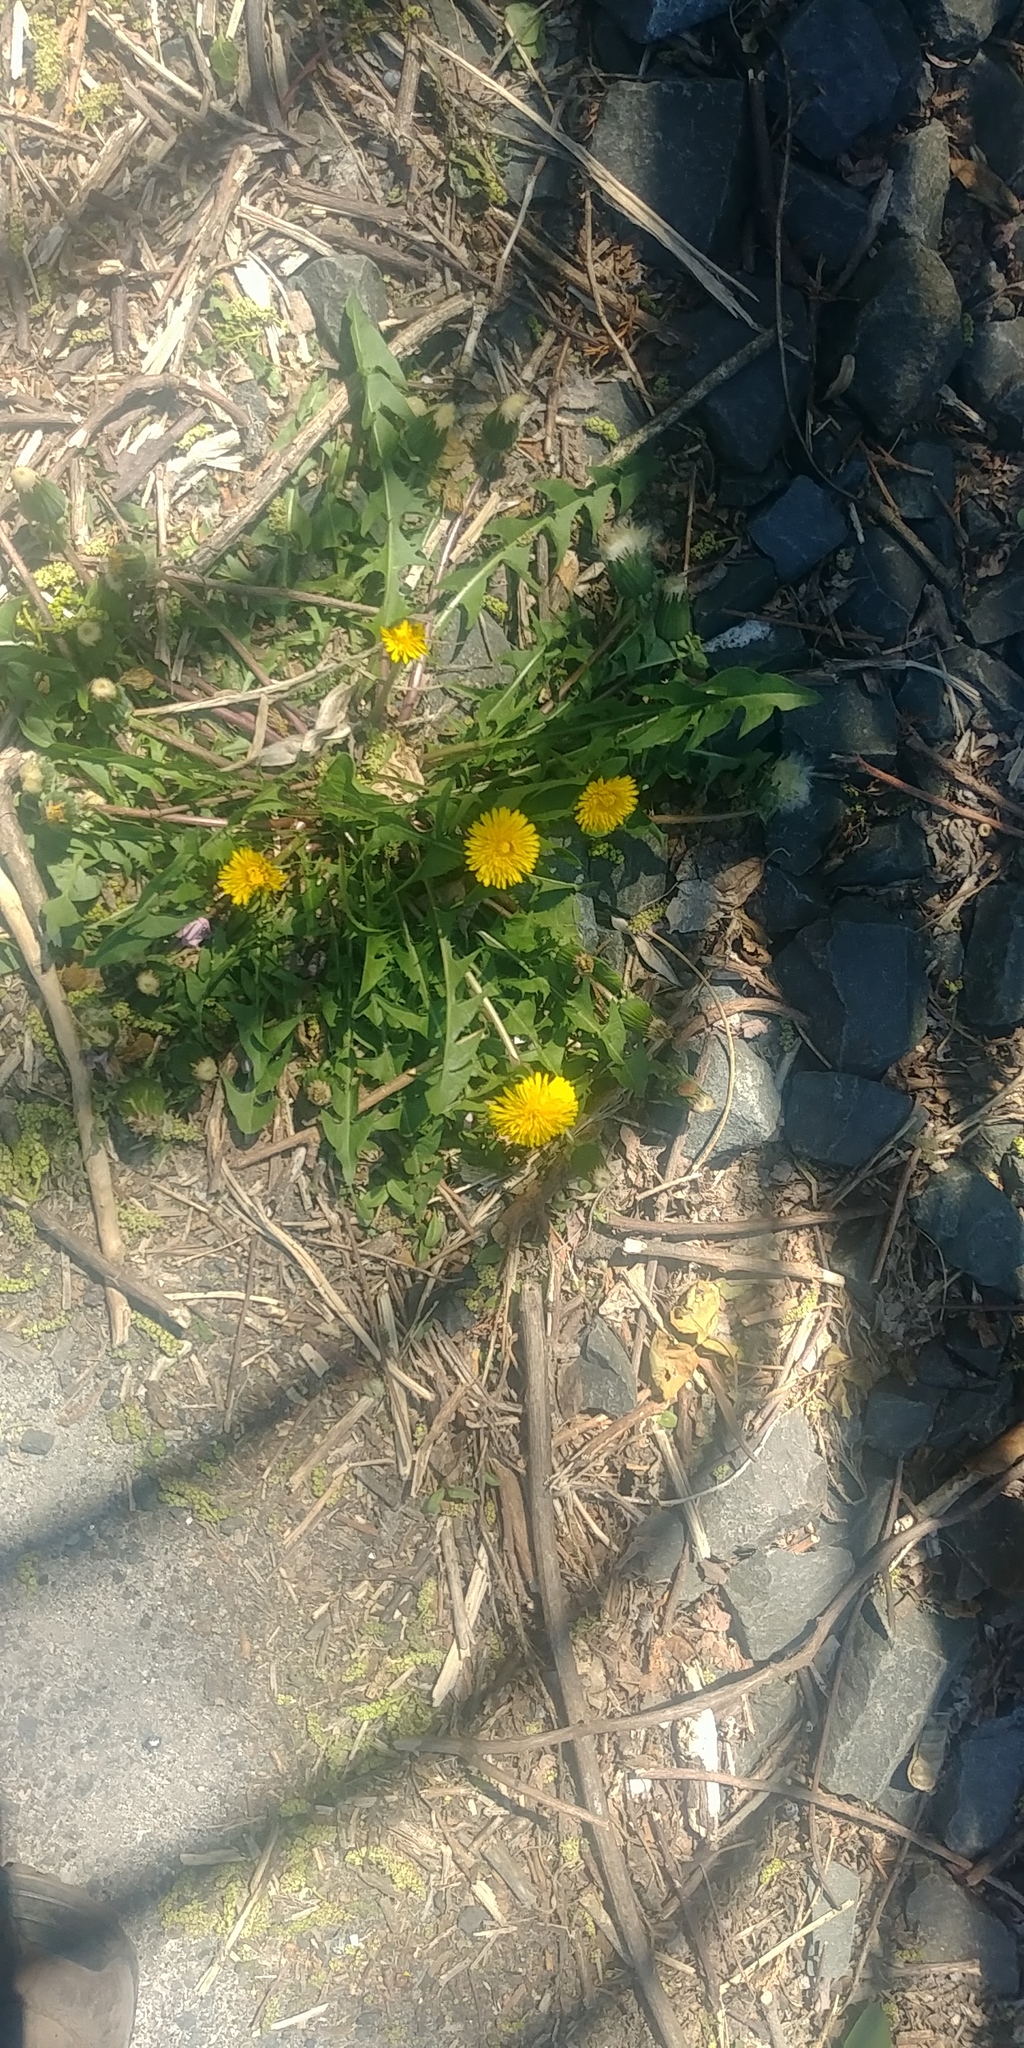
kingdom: Plantae
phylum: Tracheophyta
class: Magnoliopsida
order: Asterales
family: Asteraceae
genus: Taraxacum
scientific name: Taraxacum officinale
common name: Common dandelion
